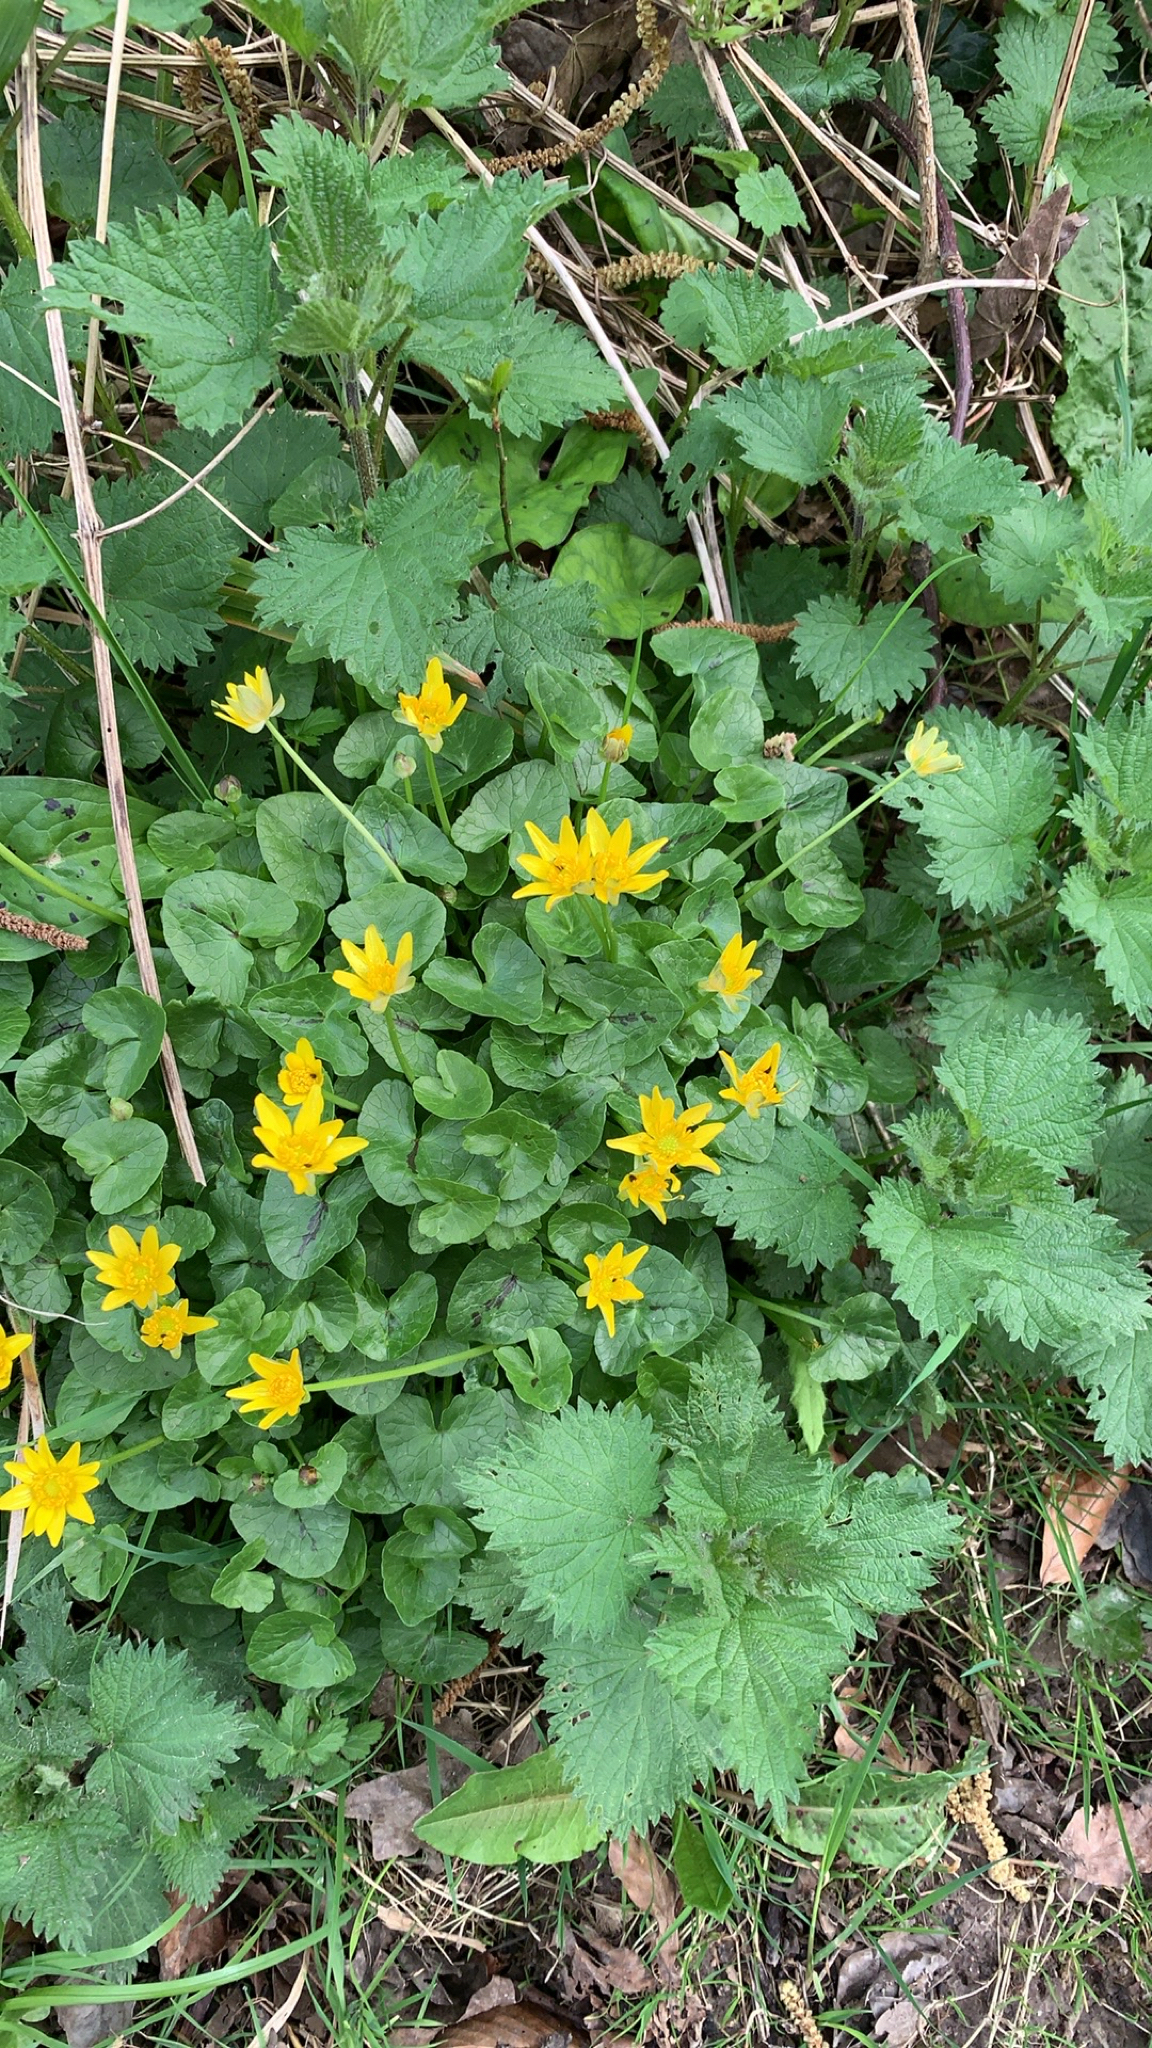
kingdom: Plantae
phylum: Tracheophyta
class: Magnoliopsida
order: Ranunculales
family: Ranunculaceae
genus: Ficaria
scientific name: Ficaria verna
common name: Lesser celandine
